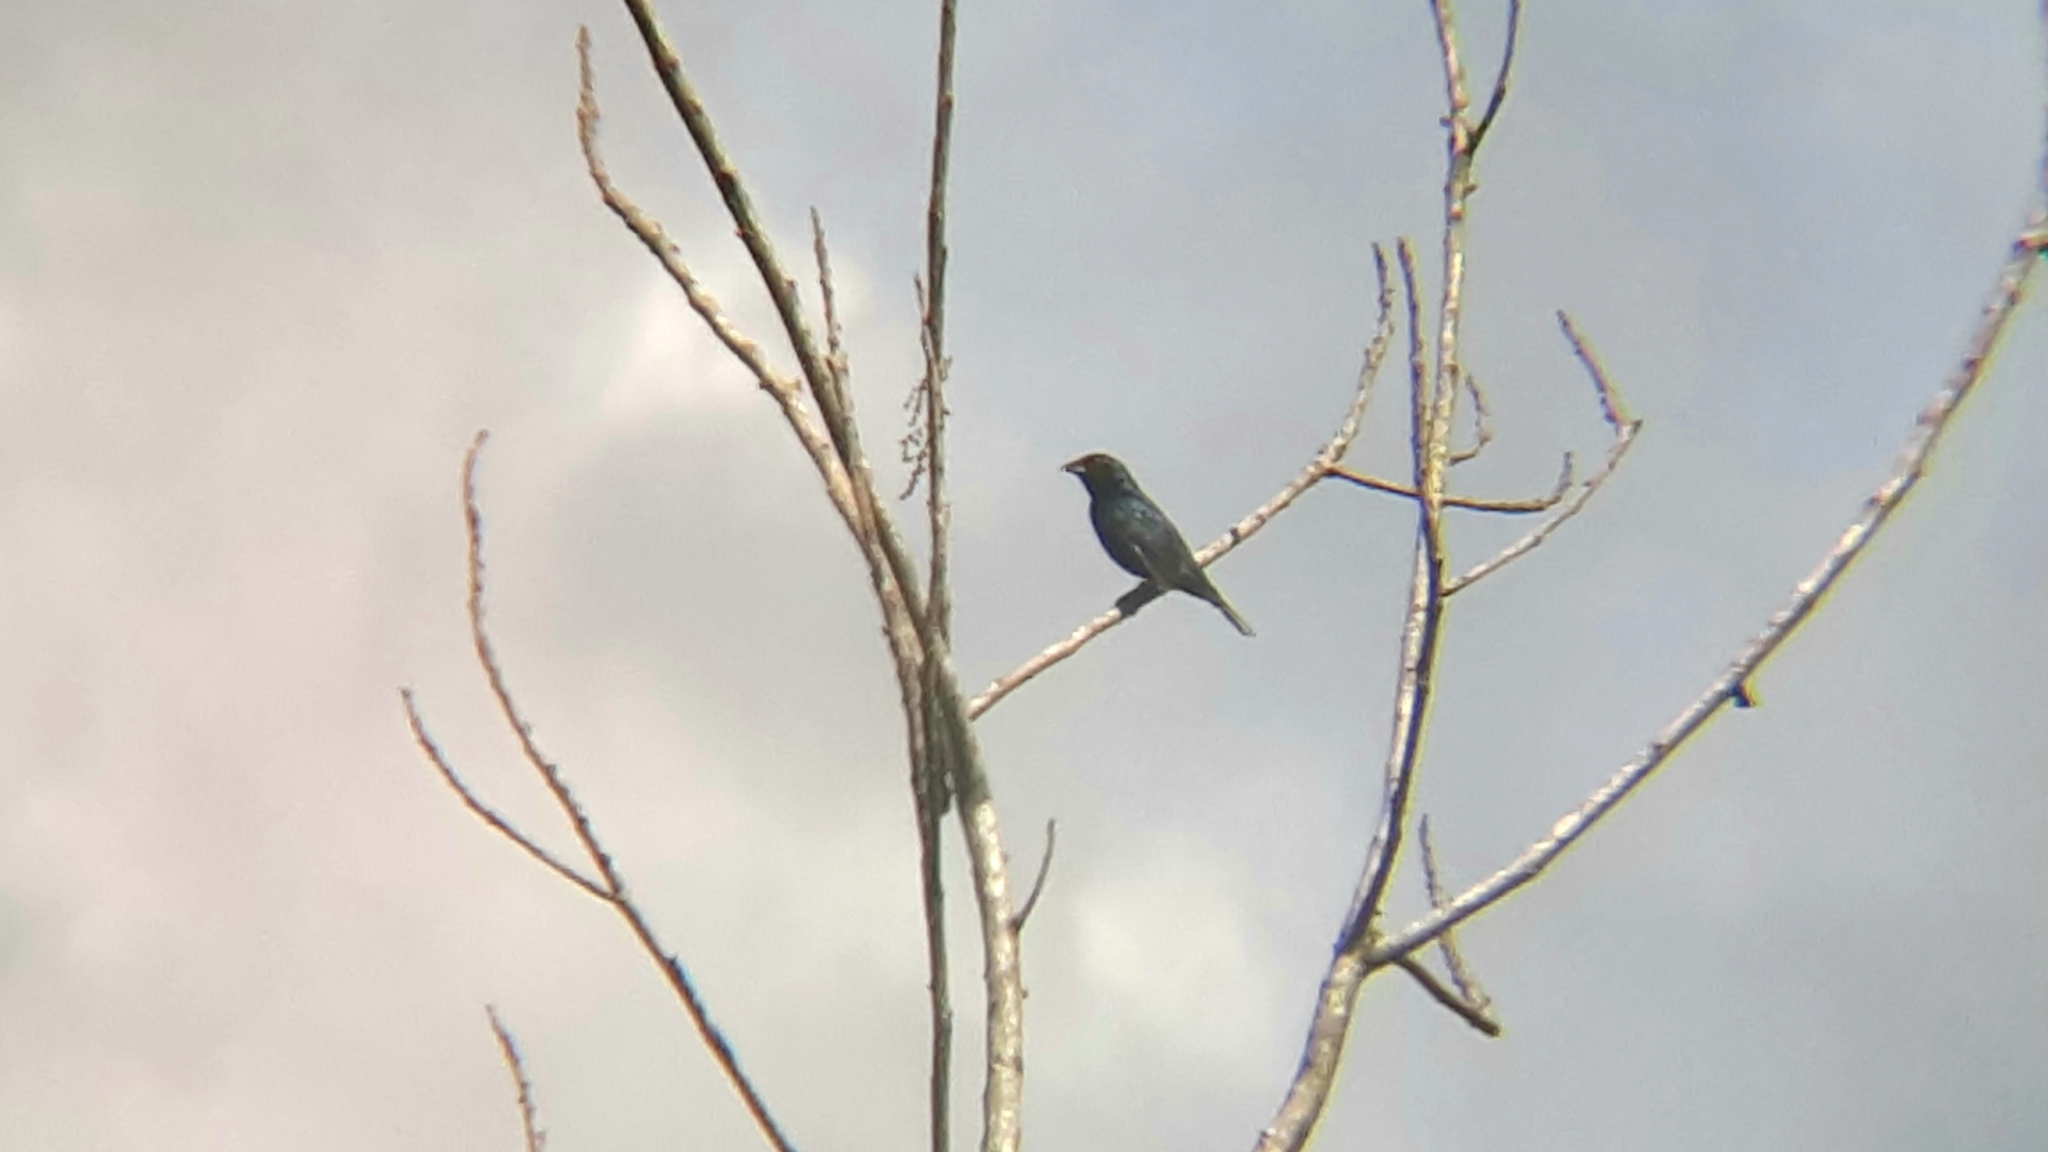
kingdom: Animalia
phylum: Chordata
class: Aves
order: Passeriformes
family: Thraupidae
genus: Volatinia
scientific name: Volatinia jacarina
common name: Blue-black grassquit
